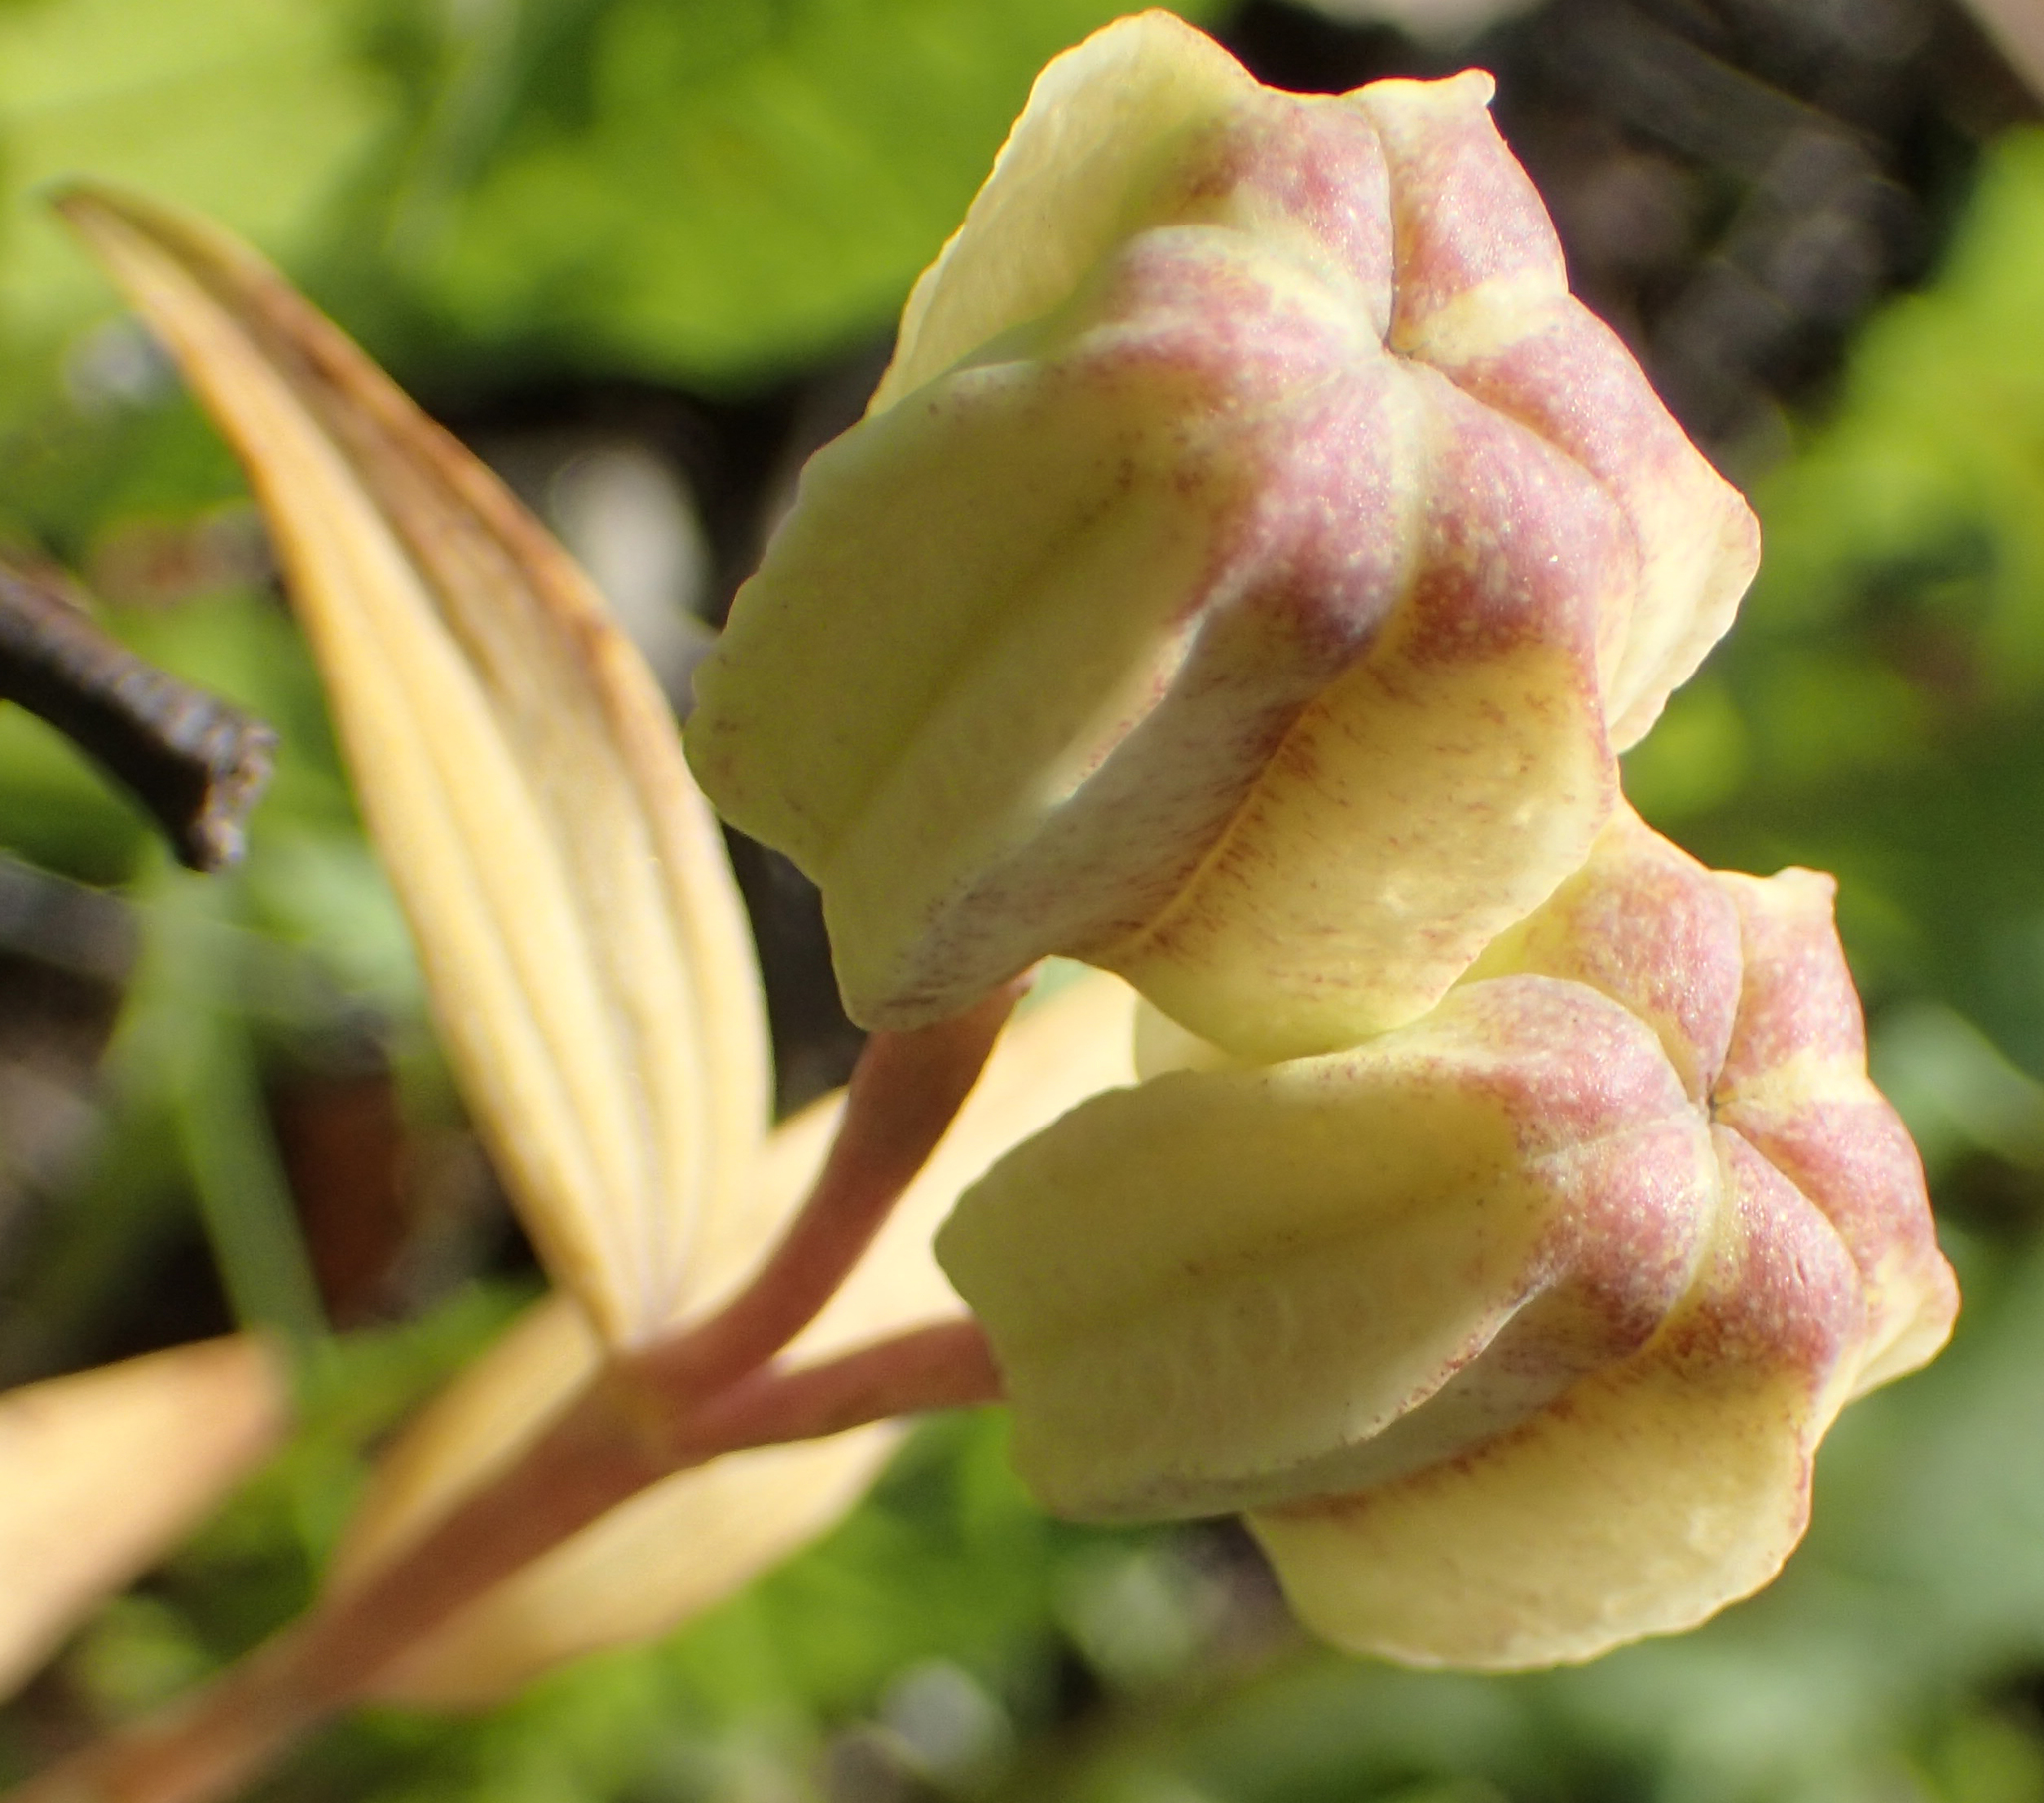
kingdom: Plantae
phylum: Tracheophyta
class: Liliopsida
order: Liliales
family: Liliaceae
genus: Fritillaria
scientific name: Fritillaria camschatcensis
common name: Kamchatka fritillary
